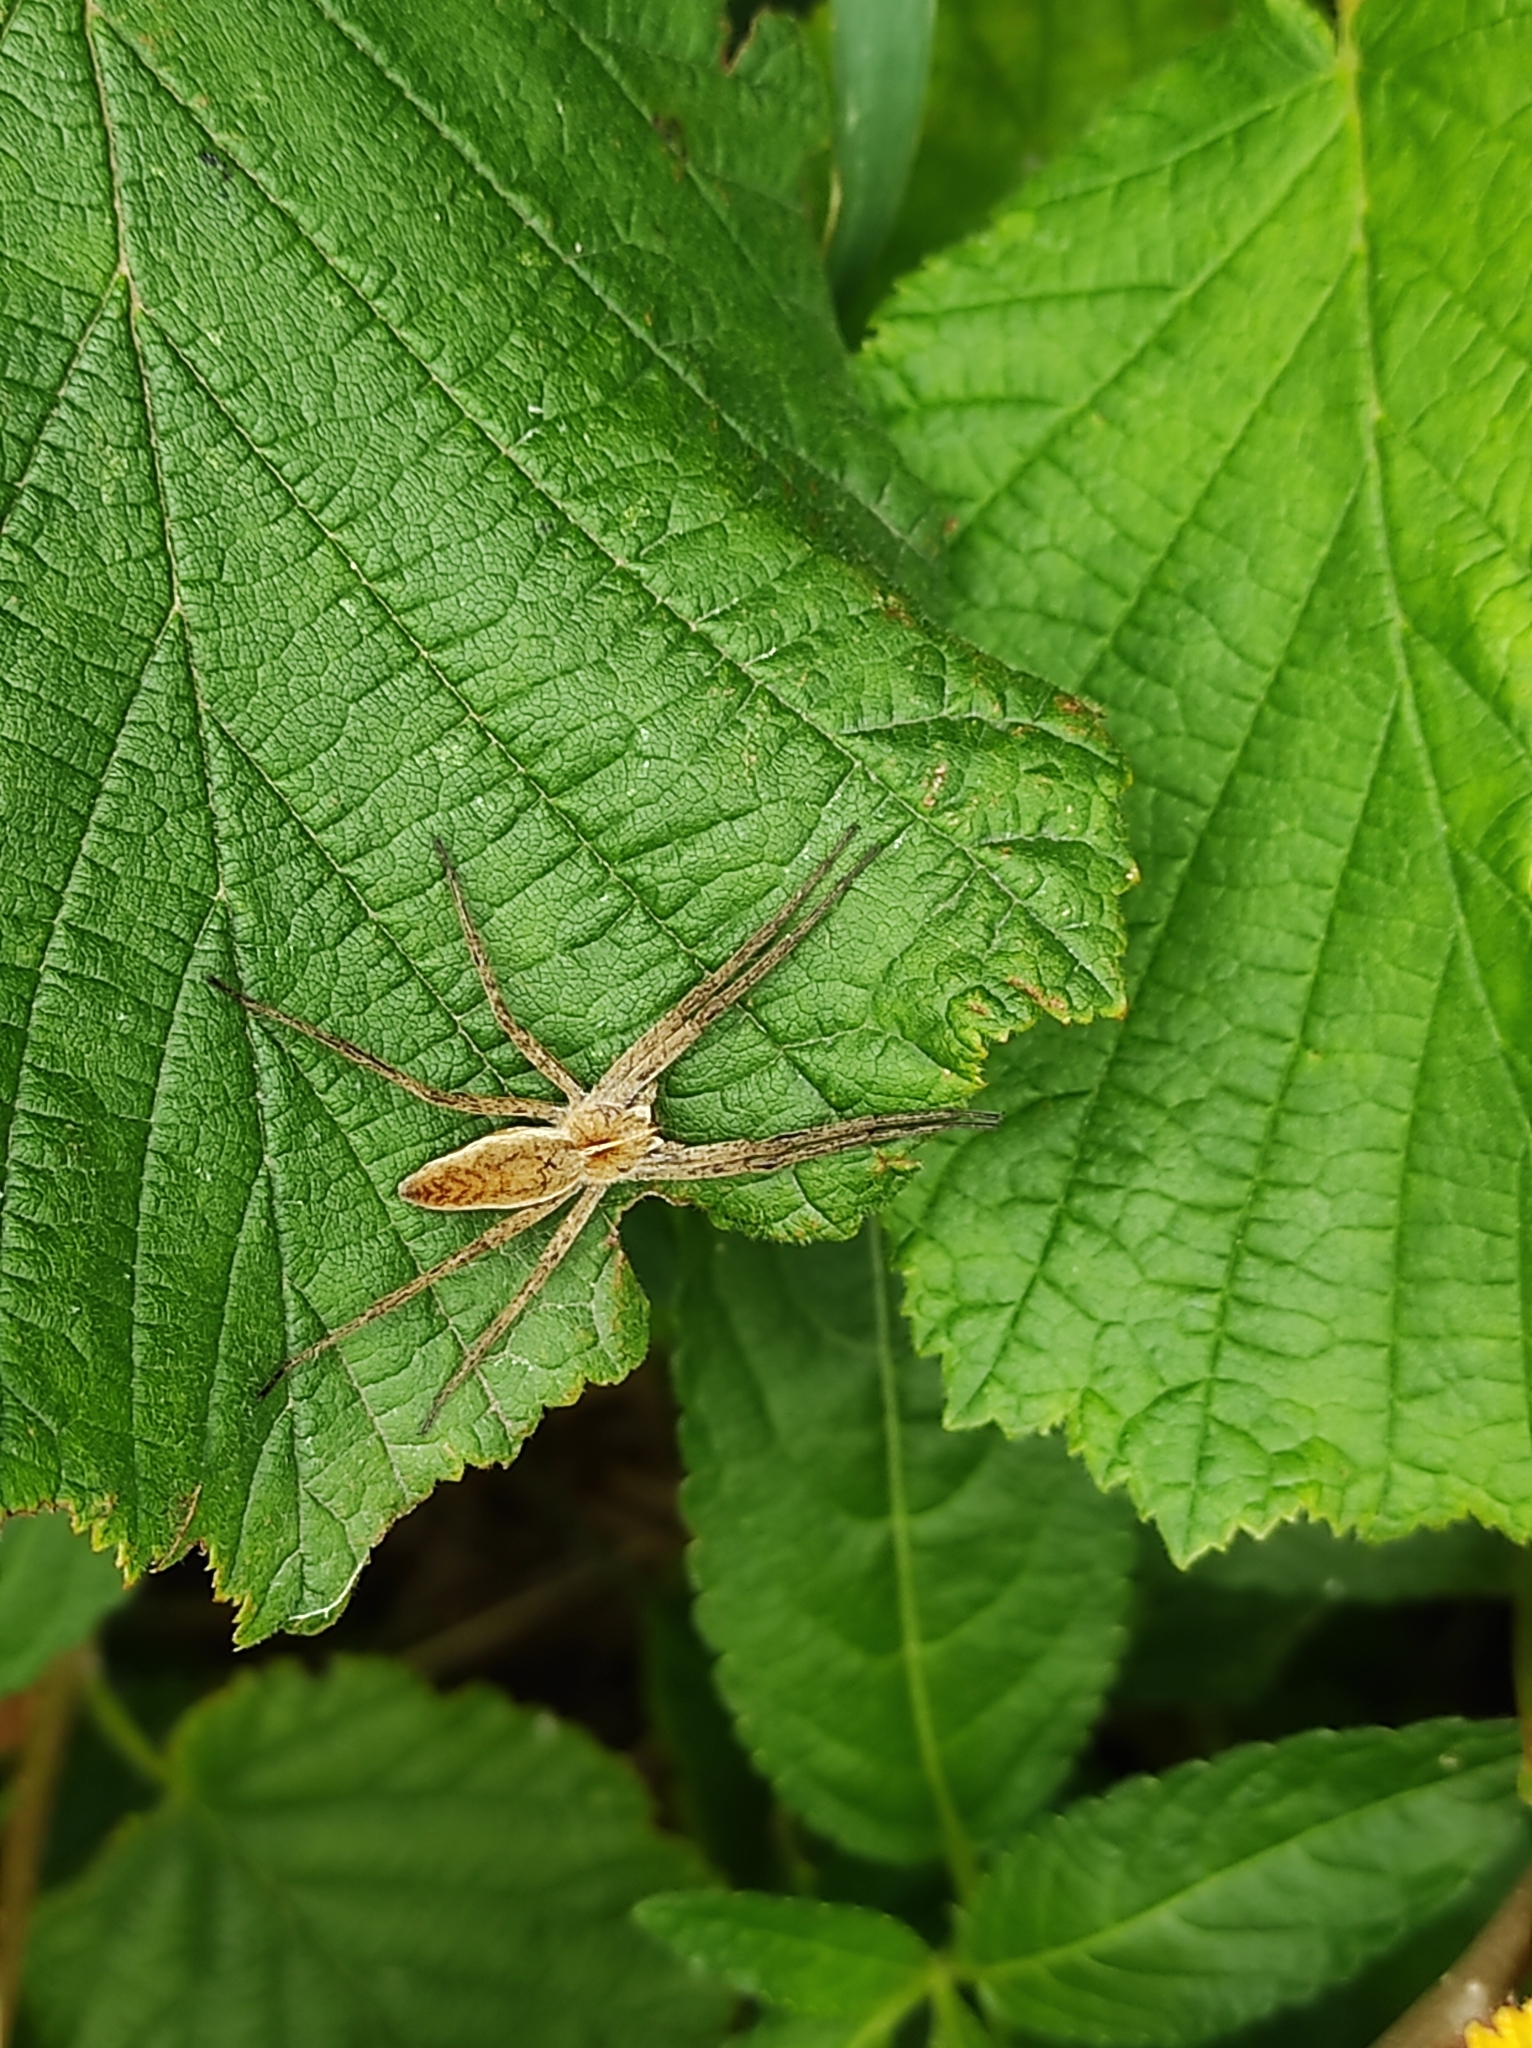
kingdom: Animalia
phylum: Arthropoda
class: Arachnida
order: Araneae
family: Pisauridae
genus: Pisaura
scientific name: Pisaura mirabilis
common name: Tent spider
